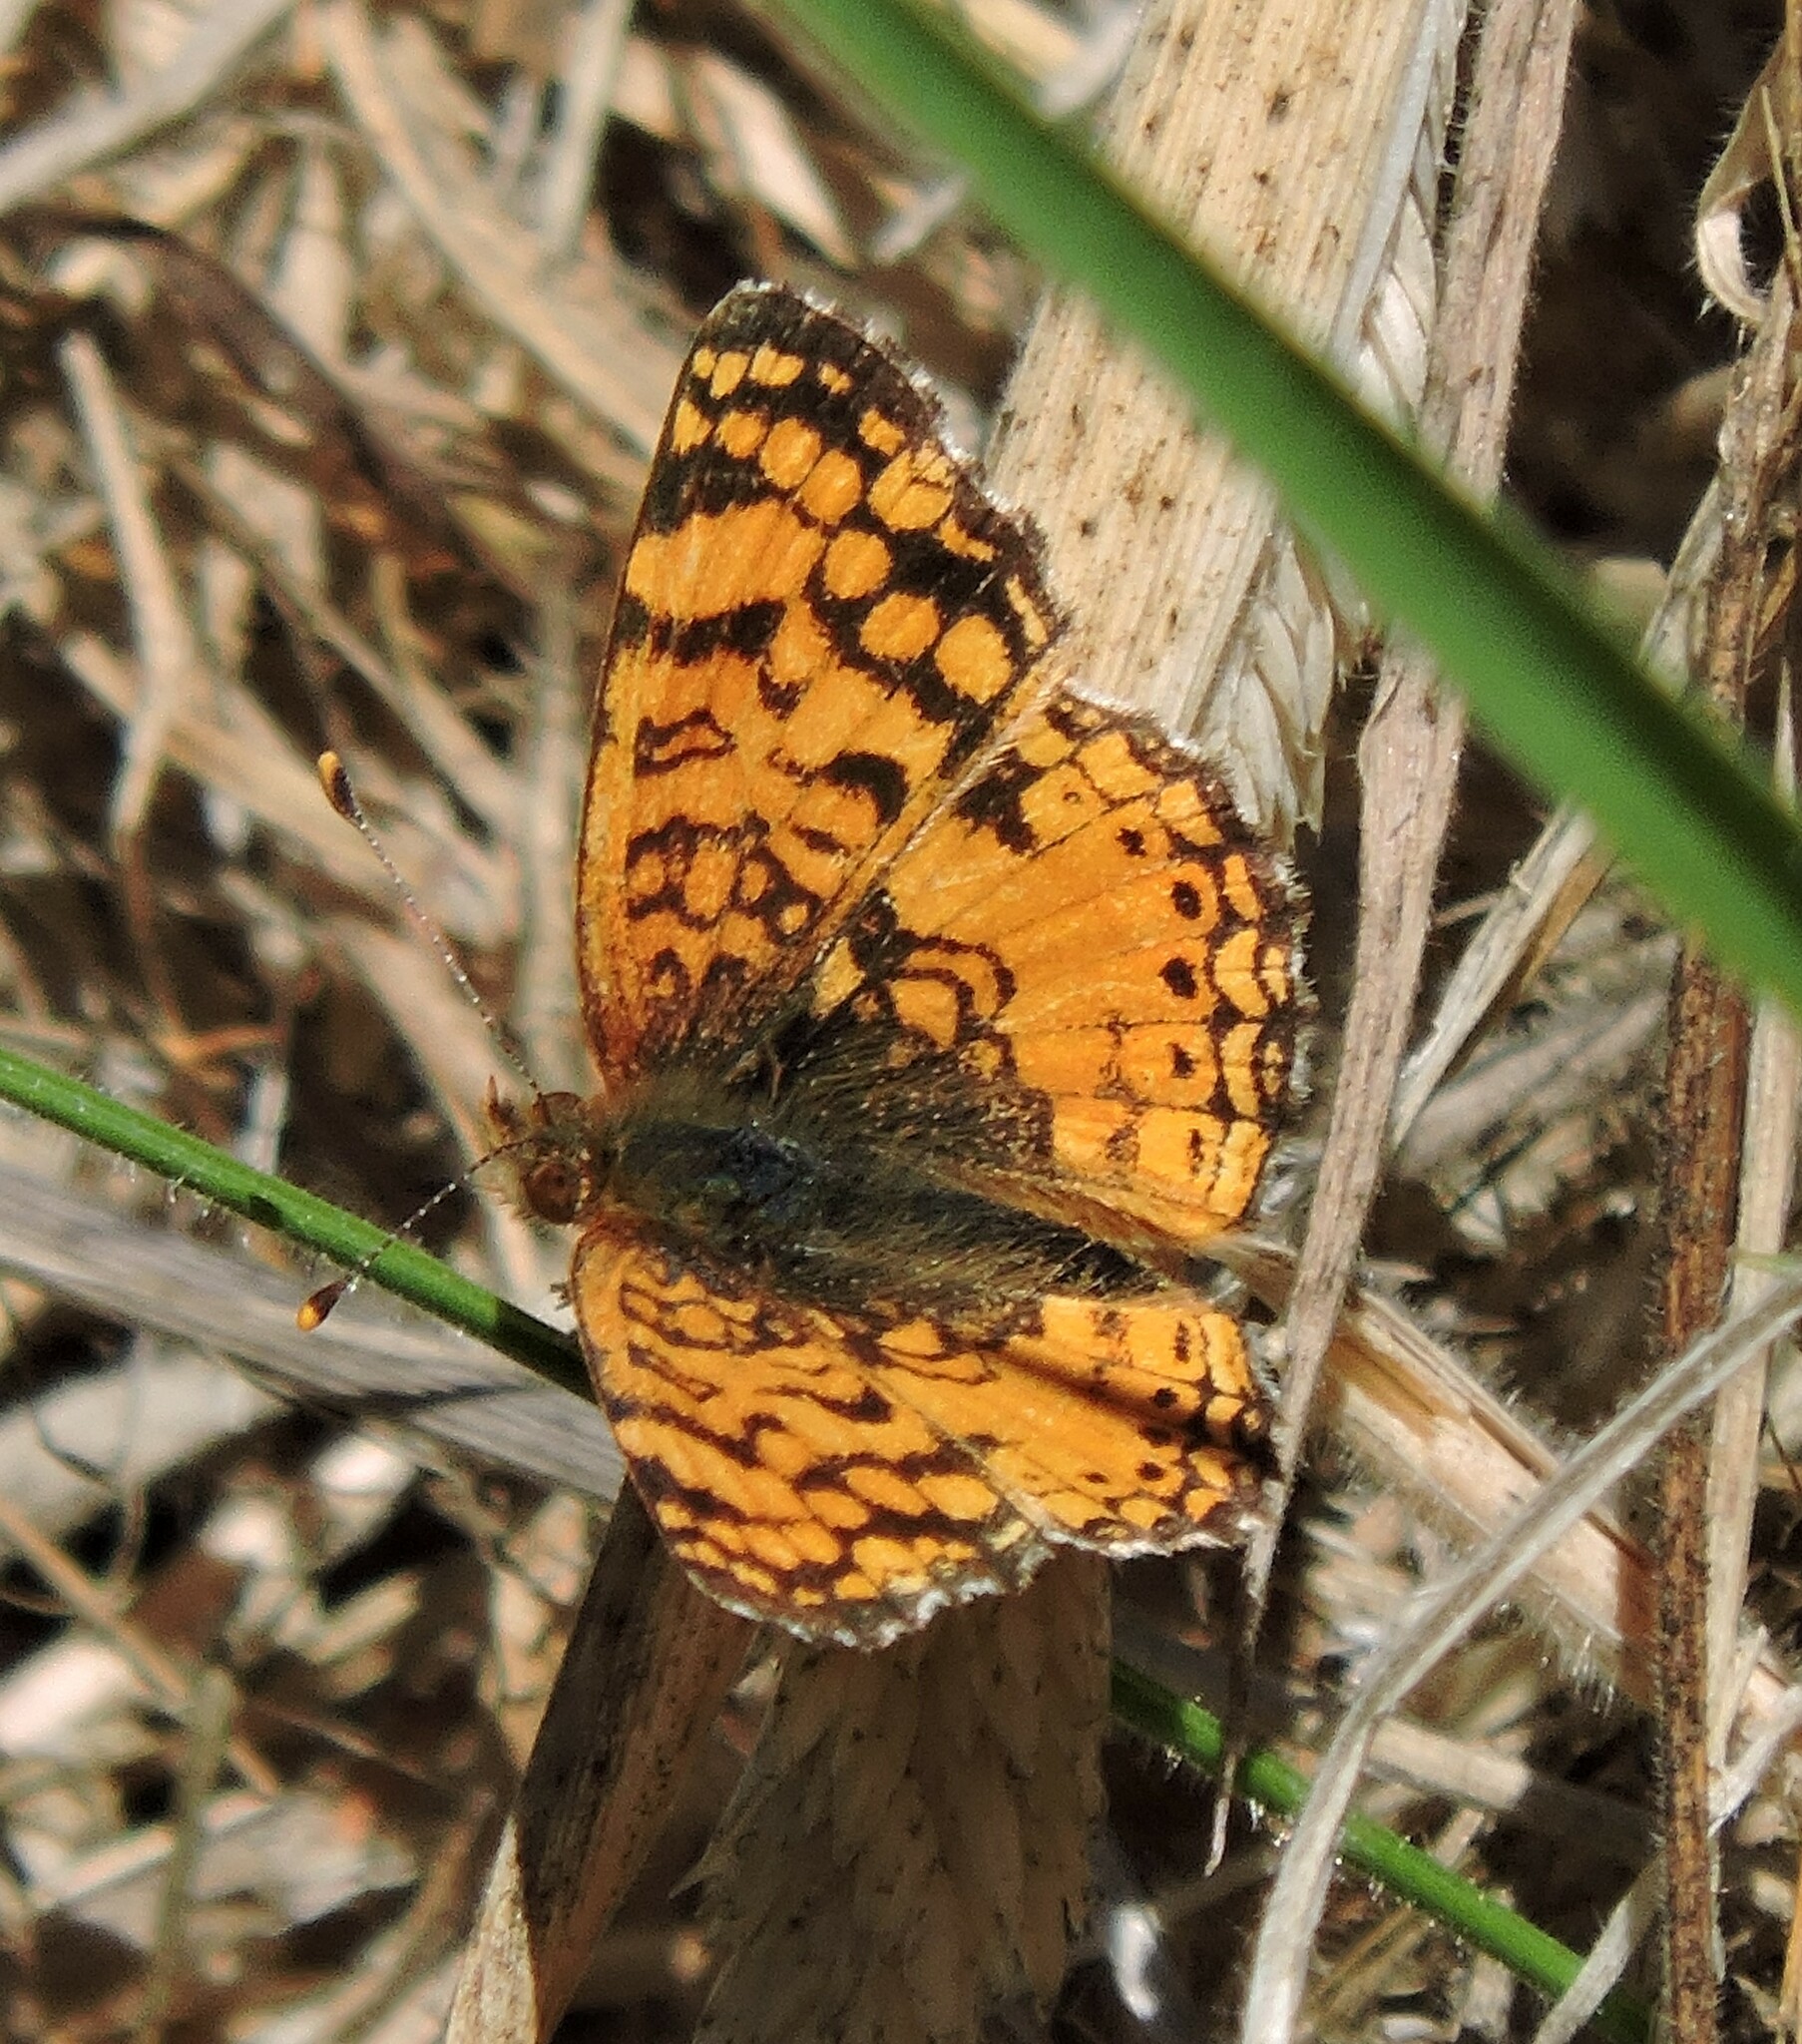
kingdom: Animalia
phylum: Arthropoda
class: Insecta
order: Lepidoptera
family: Nymphalidae
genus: Eresia
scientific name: Eresia aveyrona
